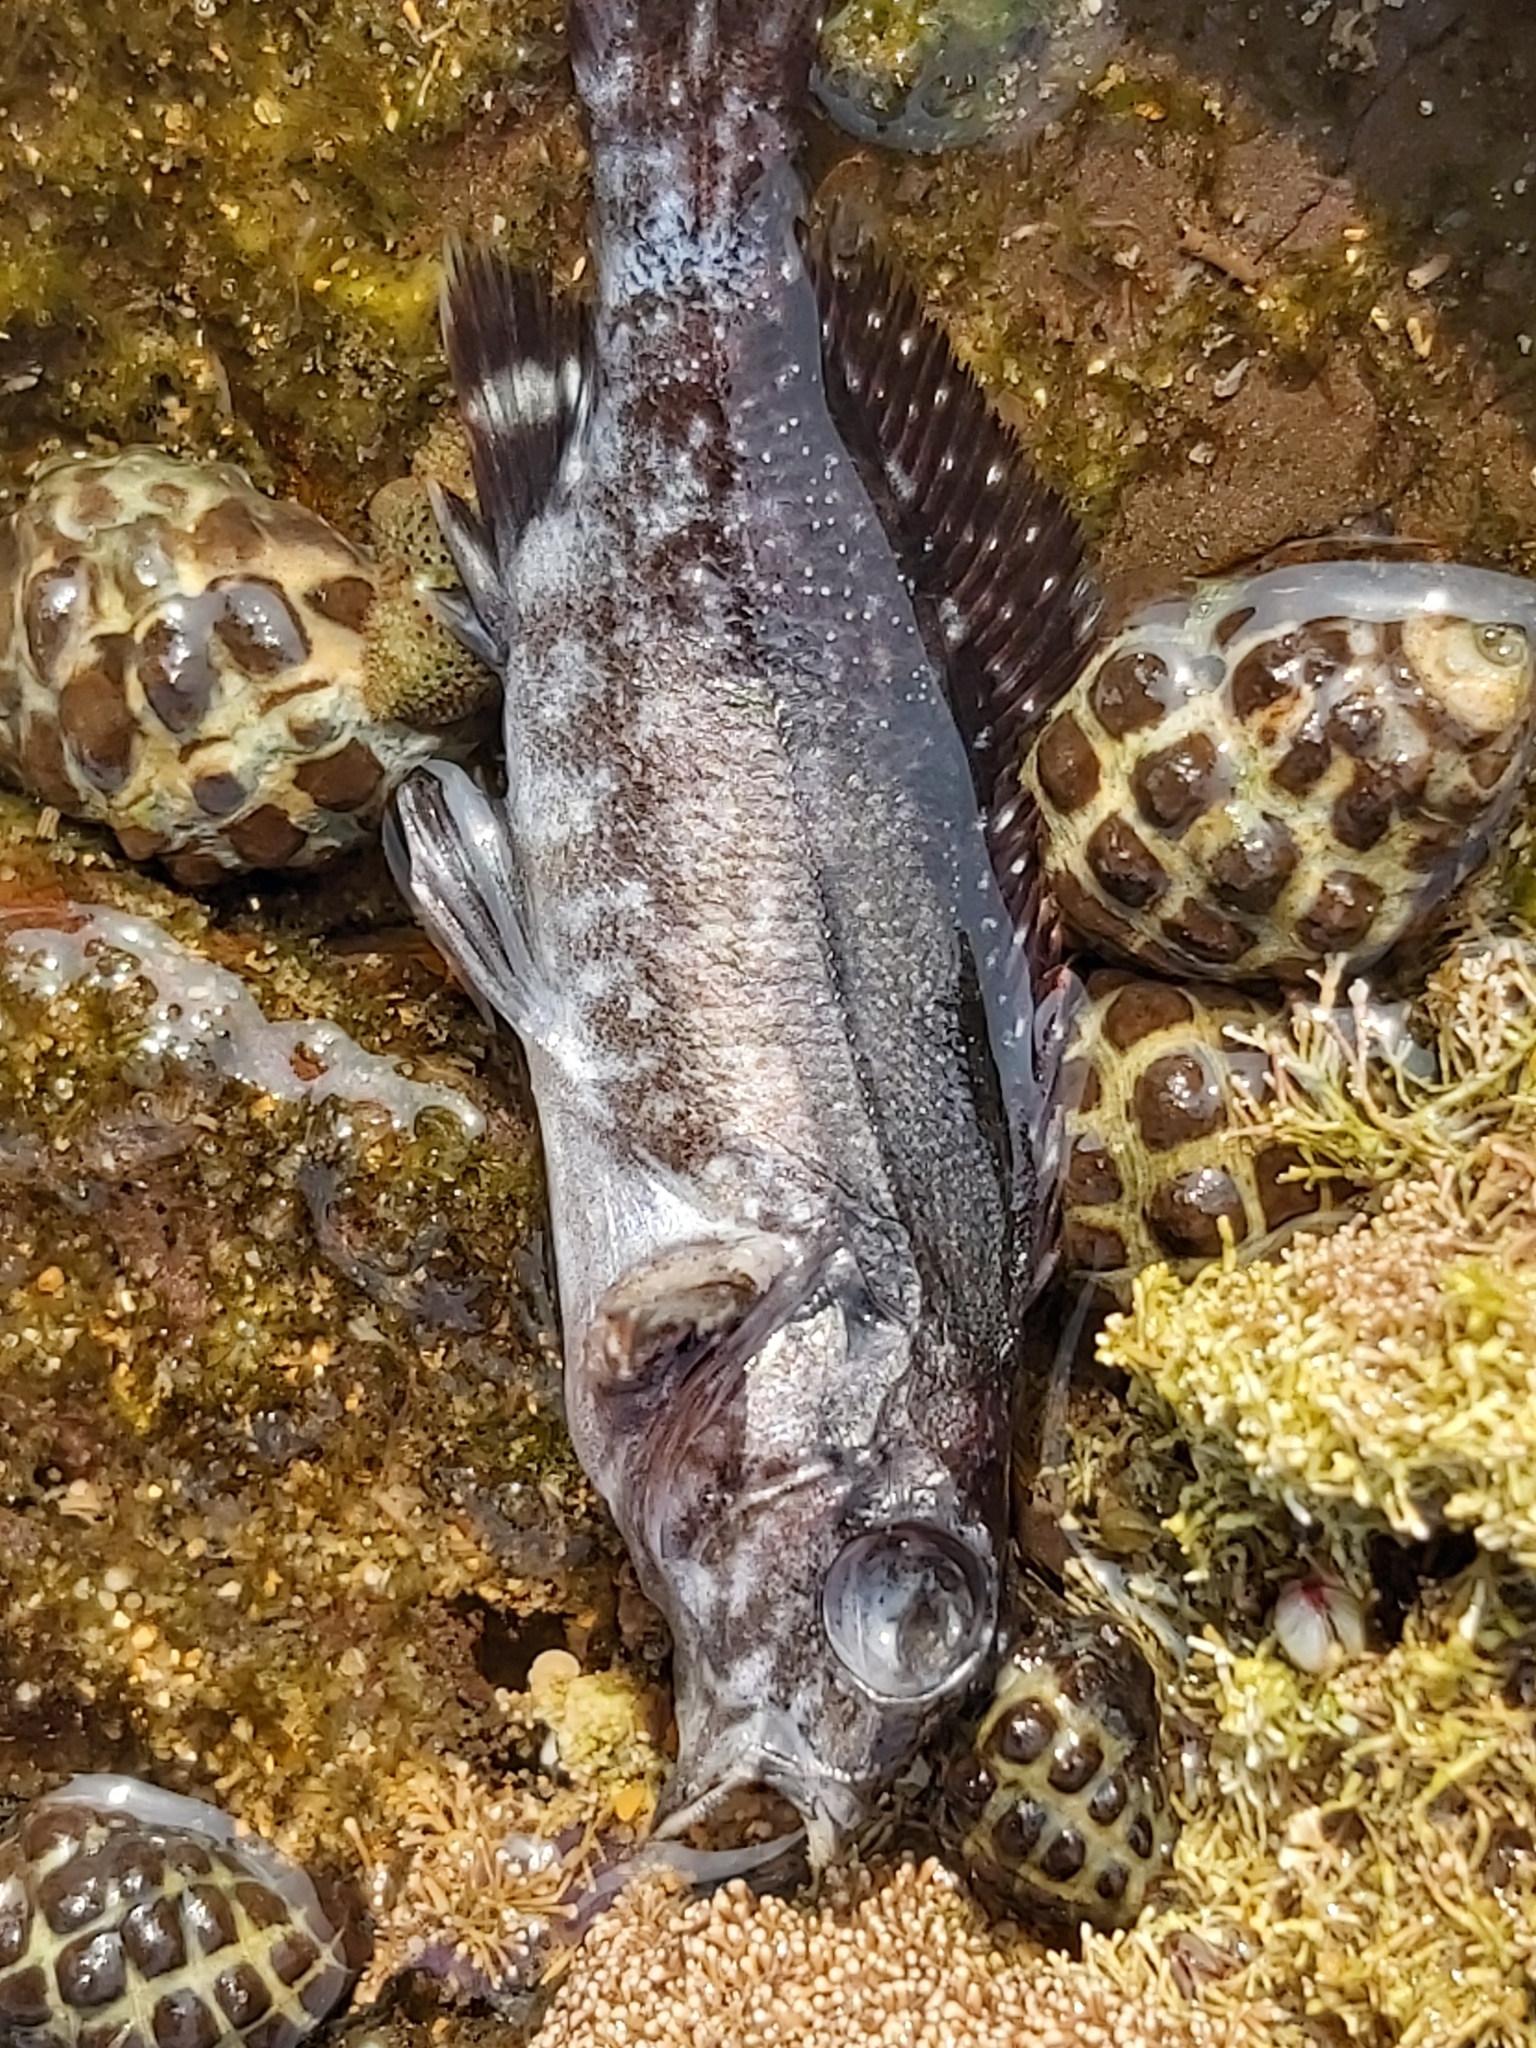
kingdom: Animalia
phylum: Chordata
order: Perciformes
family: Chironemidae
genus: Chironemus
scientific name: Chironemus marmoratus
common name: Kelpfish
